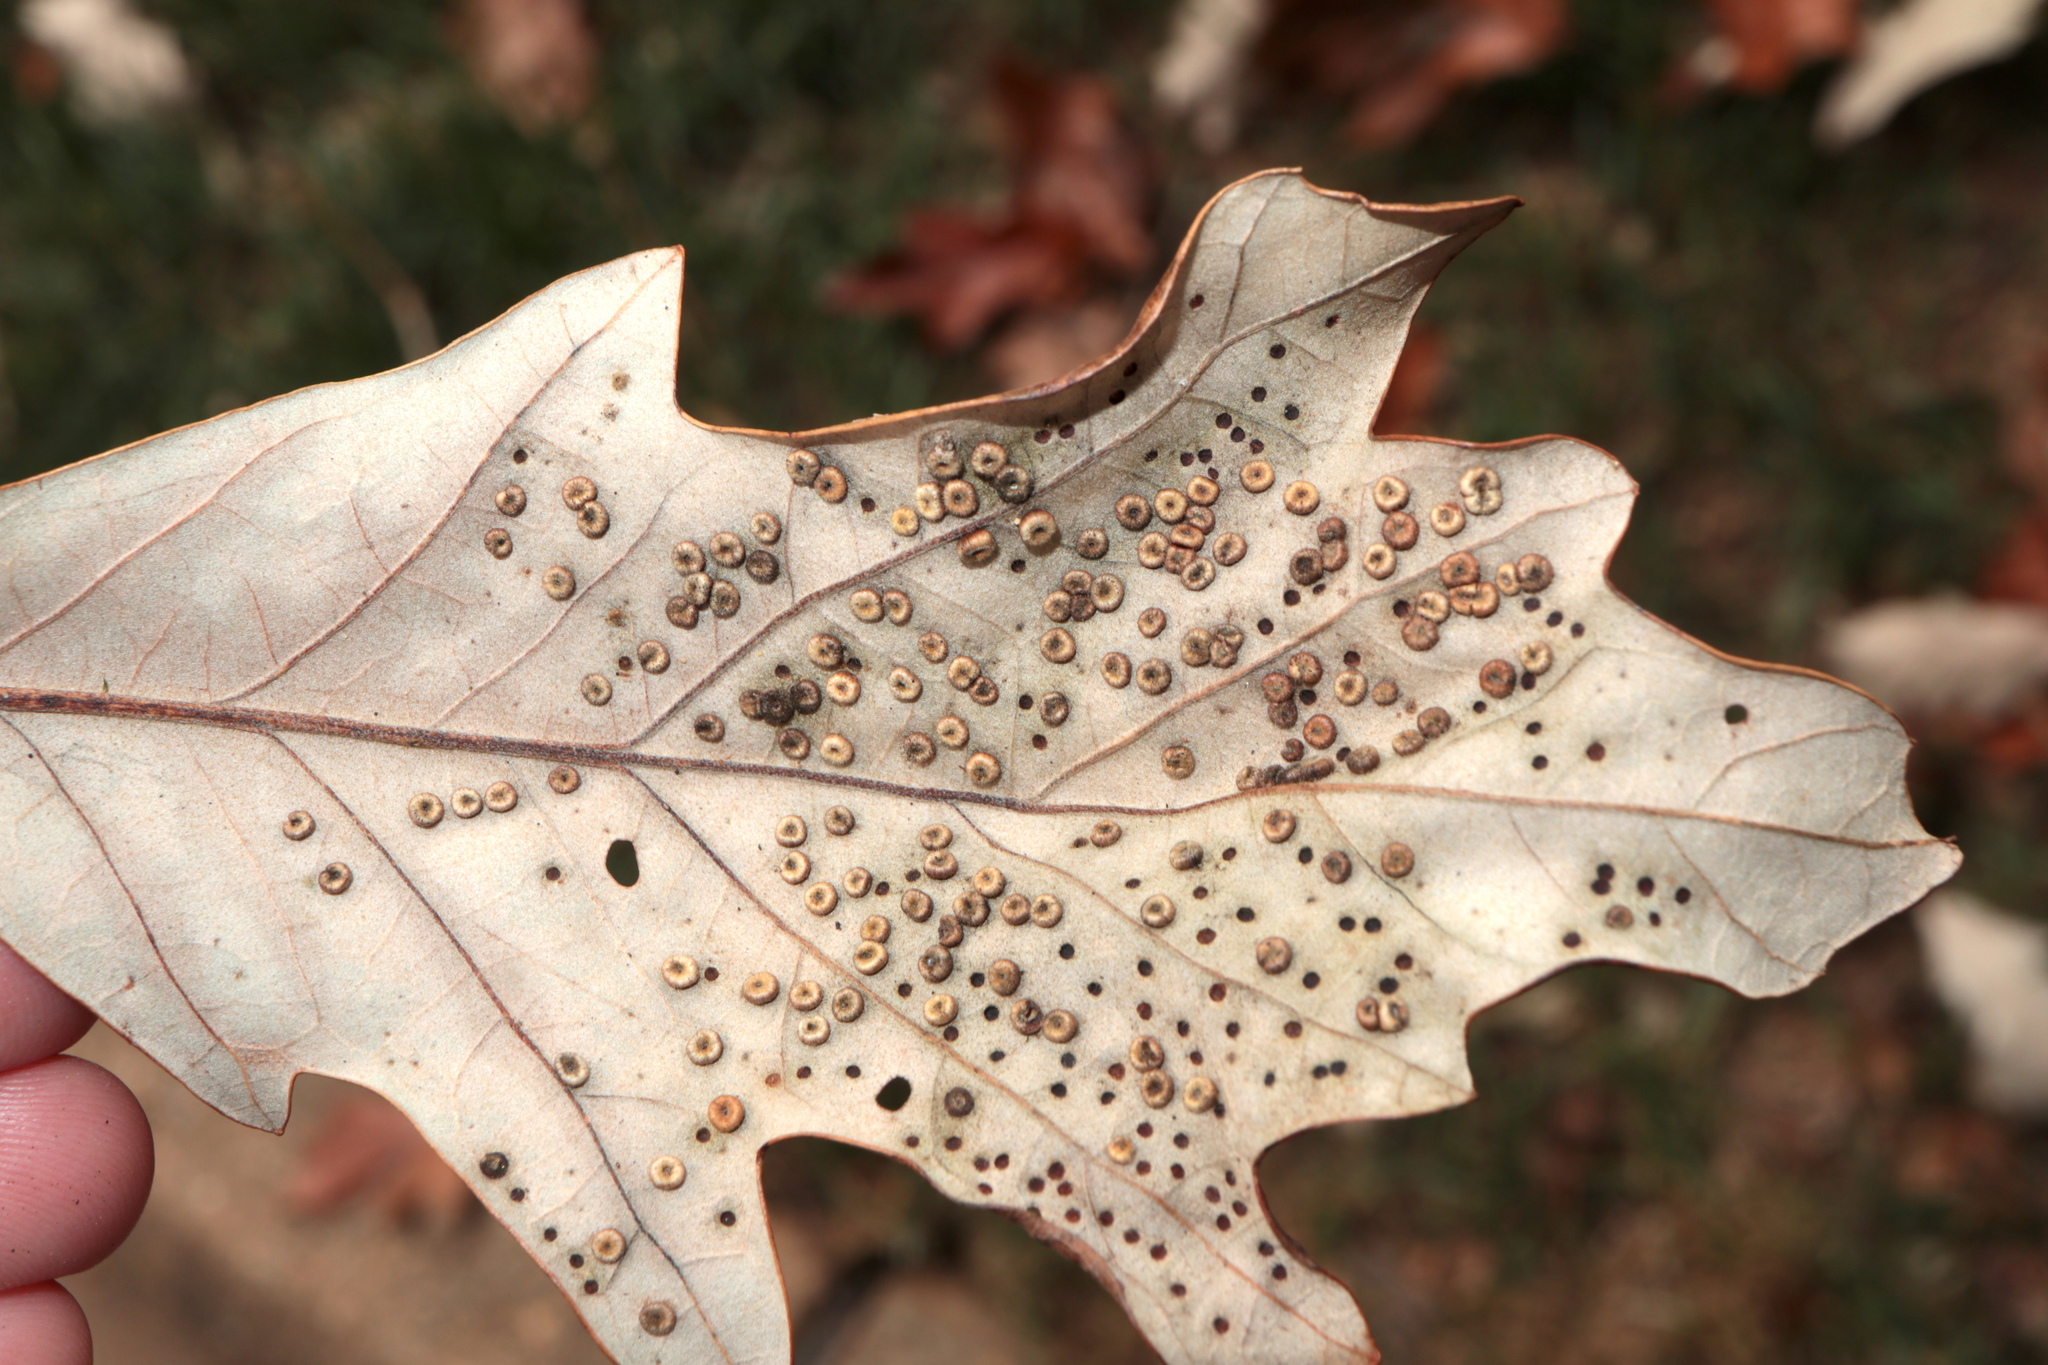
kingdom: Animalia
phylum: Arthropoda
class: Insecta
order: Hymenoptera
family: Cynipidae
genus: Neuroterus
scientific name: Neuroterus
